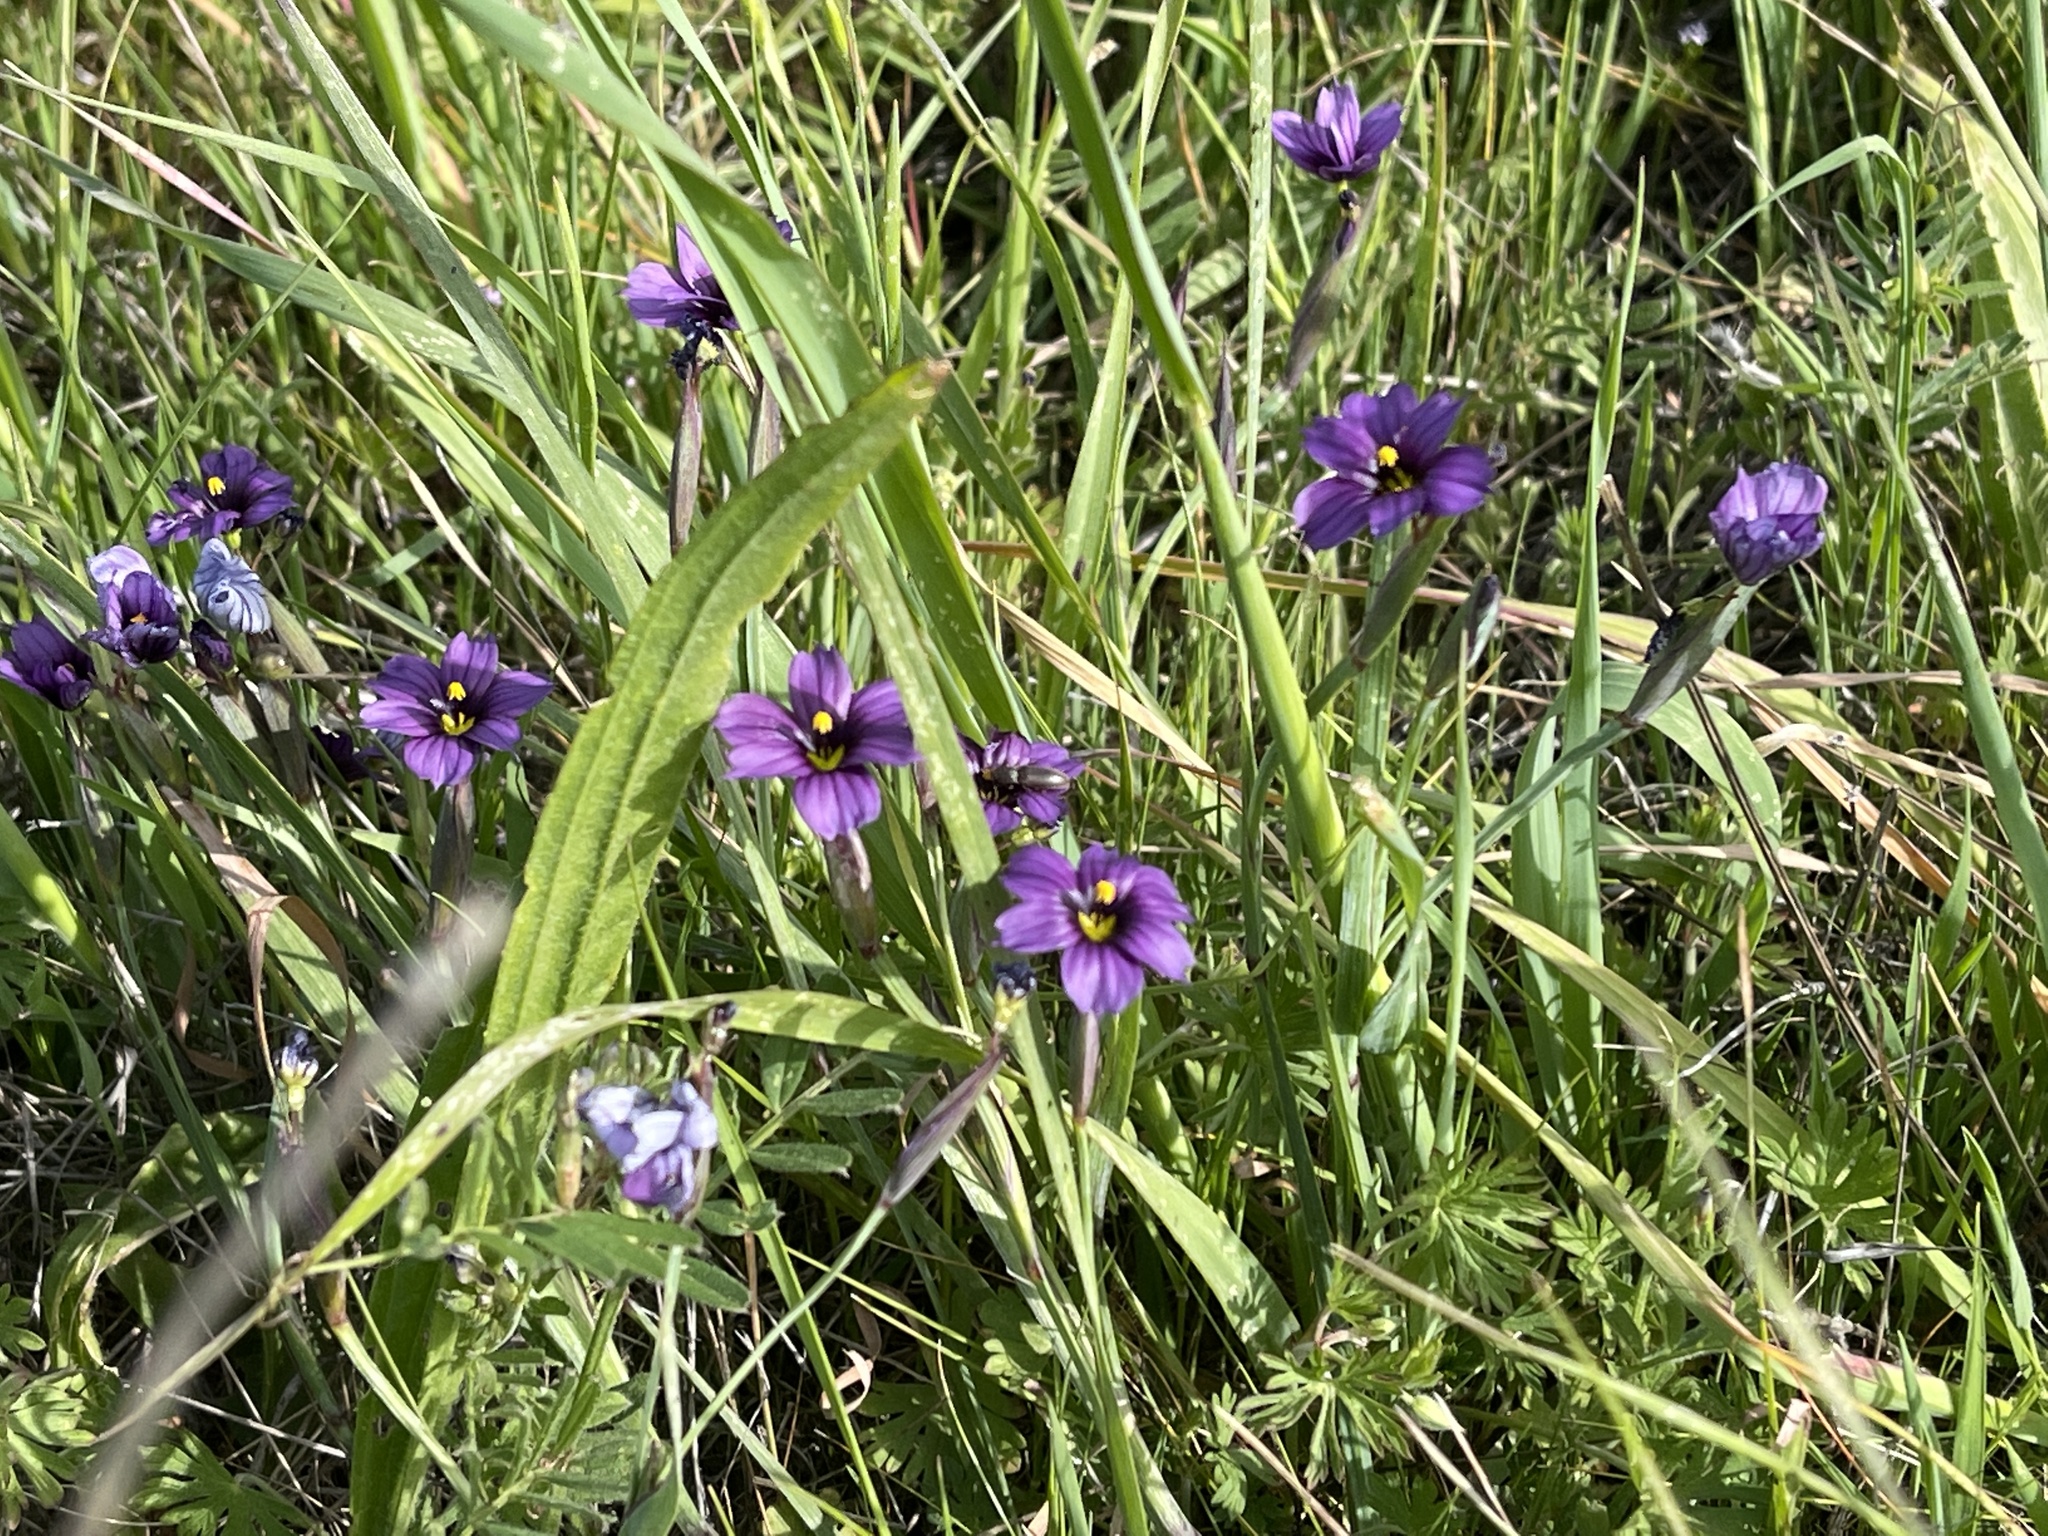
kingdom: Plantae
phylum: Tracheophyta
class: Liliopsida
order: Asparagales
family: Iridaceae
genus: Sisyrinchium
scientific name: Sisyrinchium bellum
